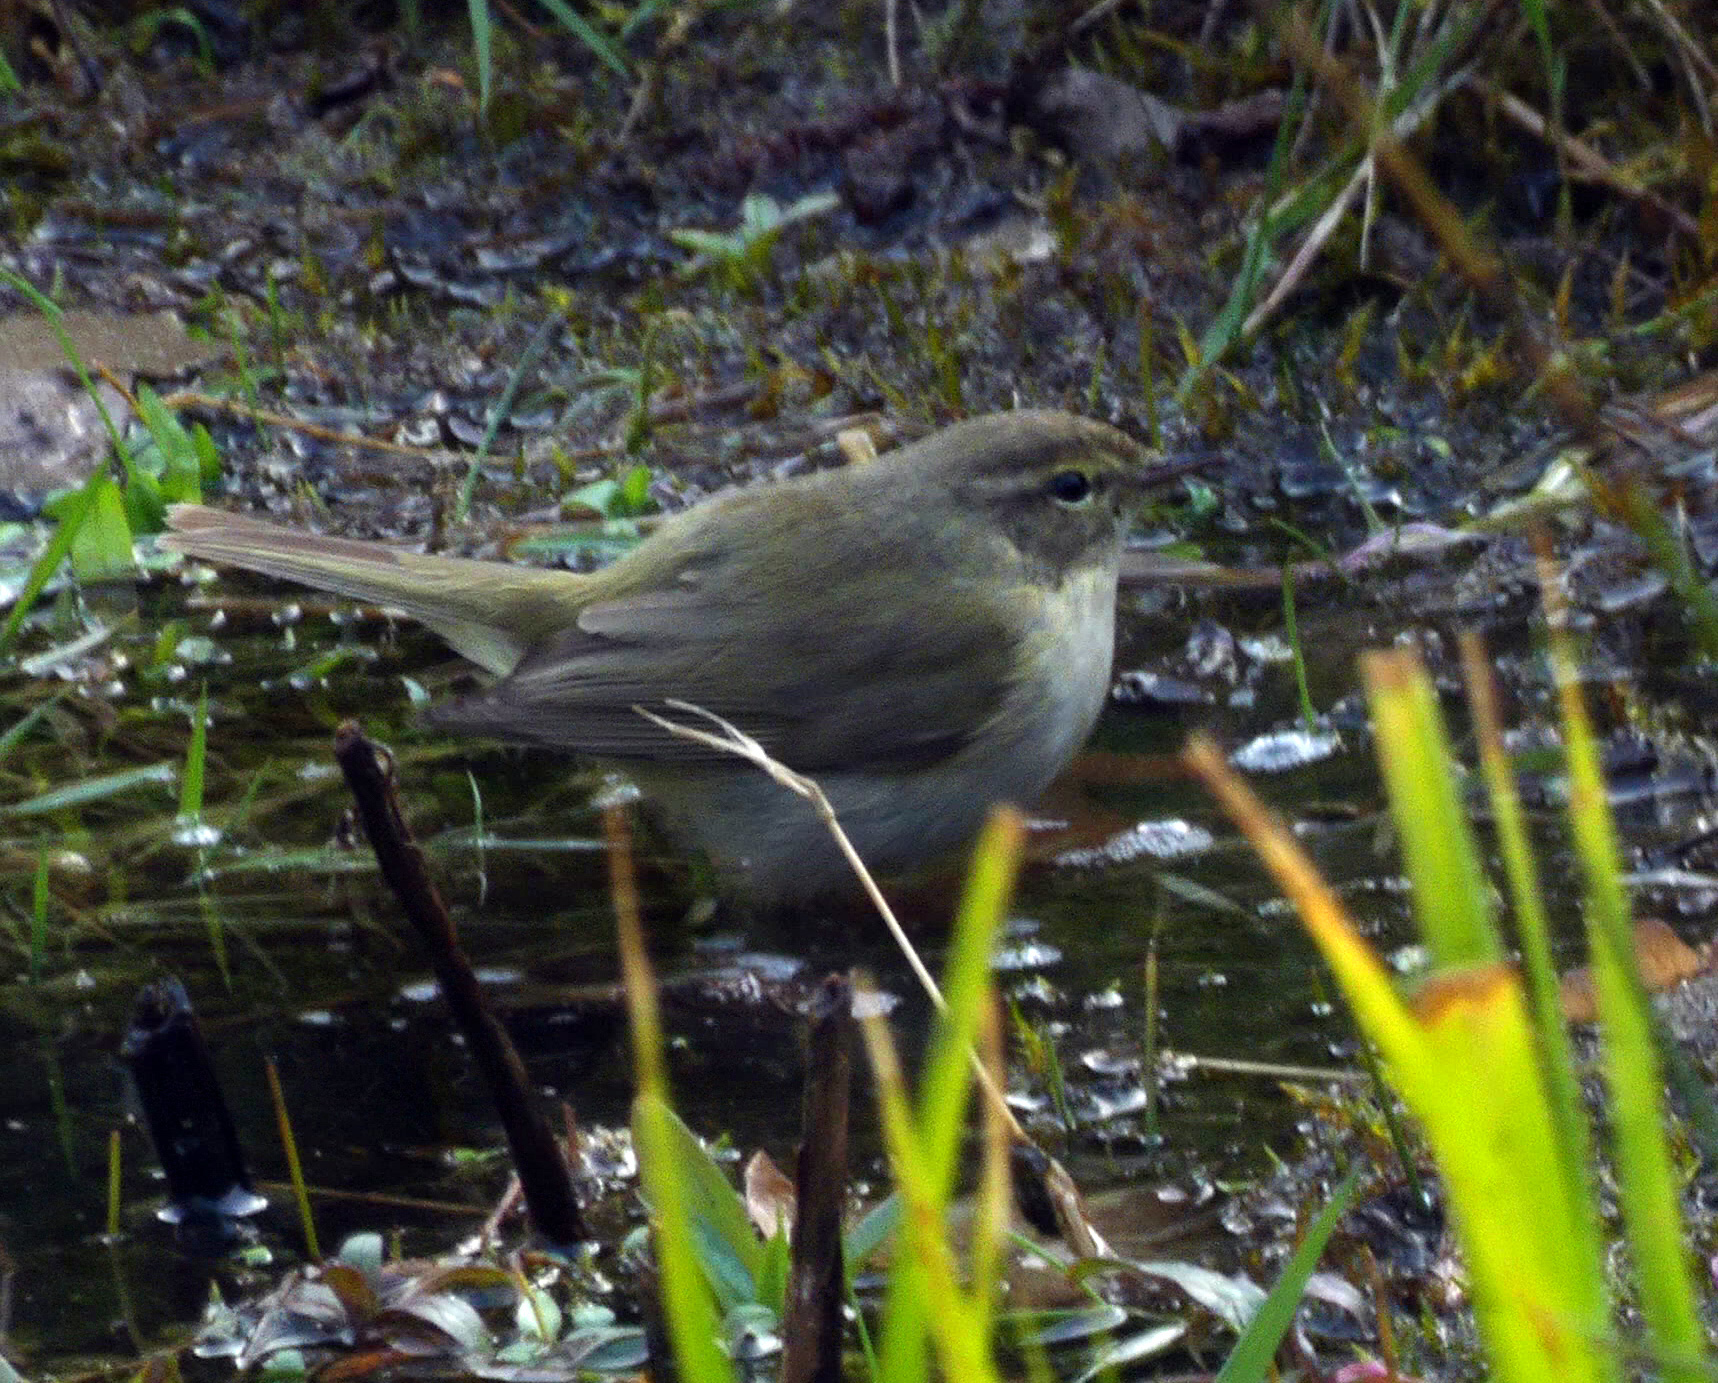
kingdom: Animalia
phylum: Chordata
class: Aves
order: Passeriformes
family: Phylloscopidae
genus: Phylloscopus
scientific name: Phylloscopus collybita
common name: Common chiffchaff
